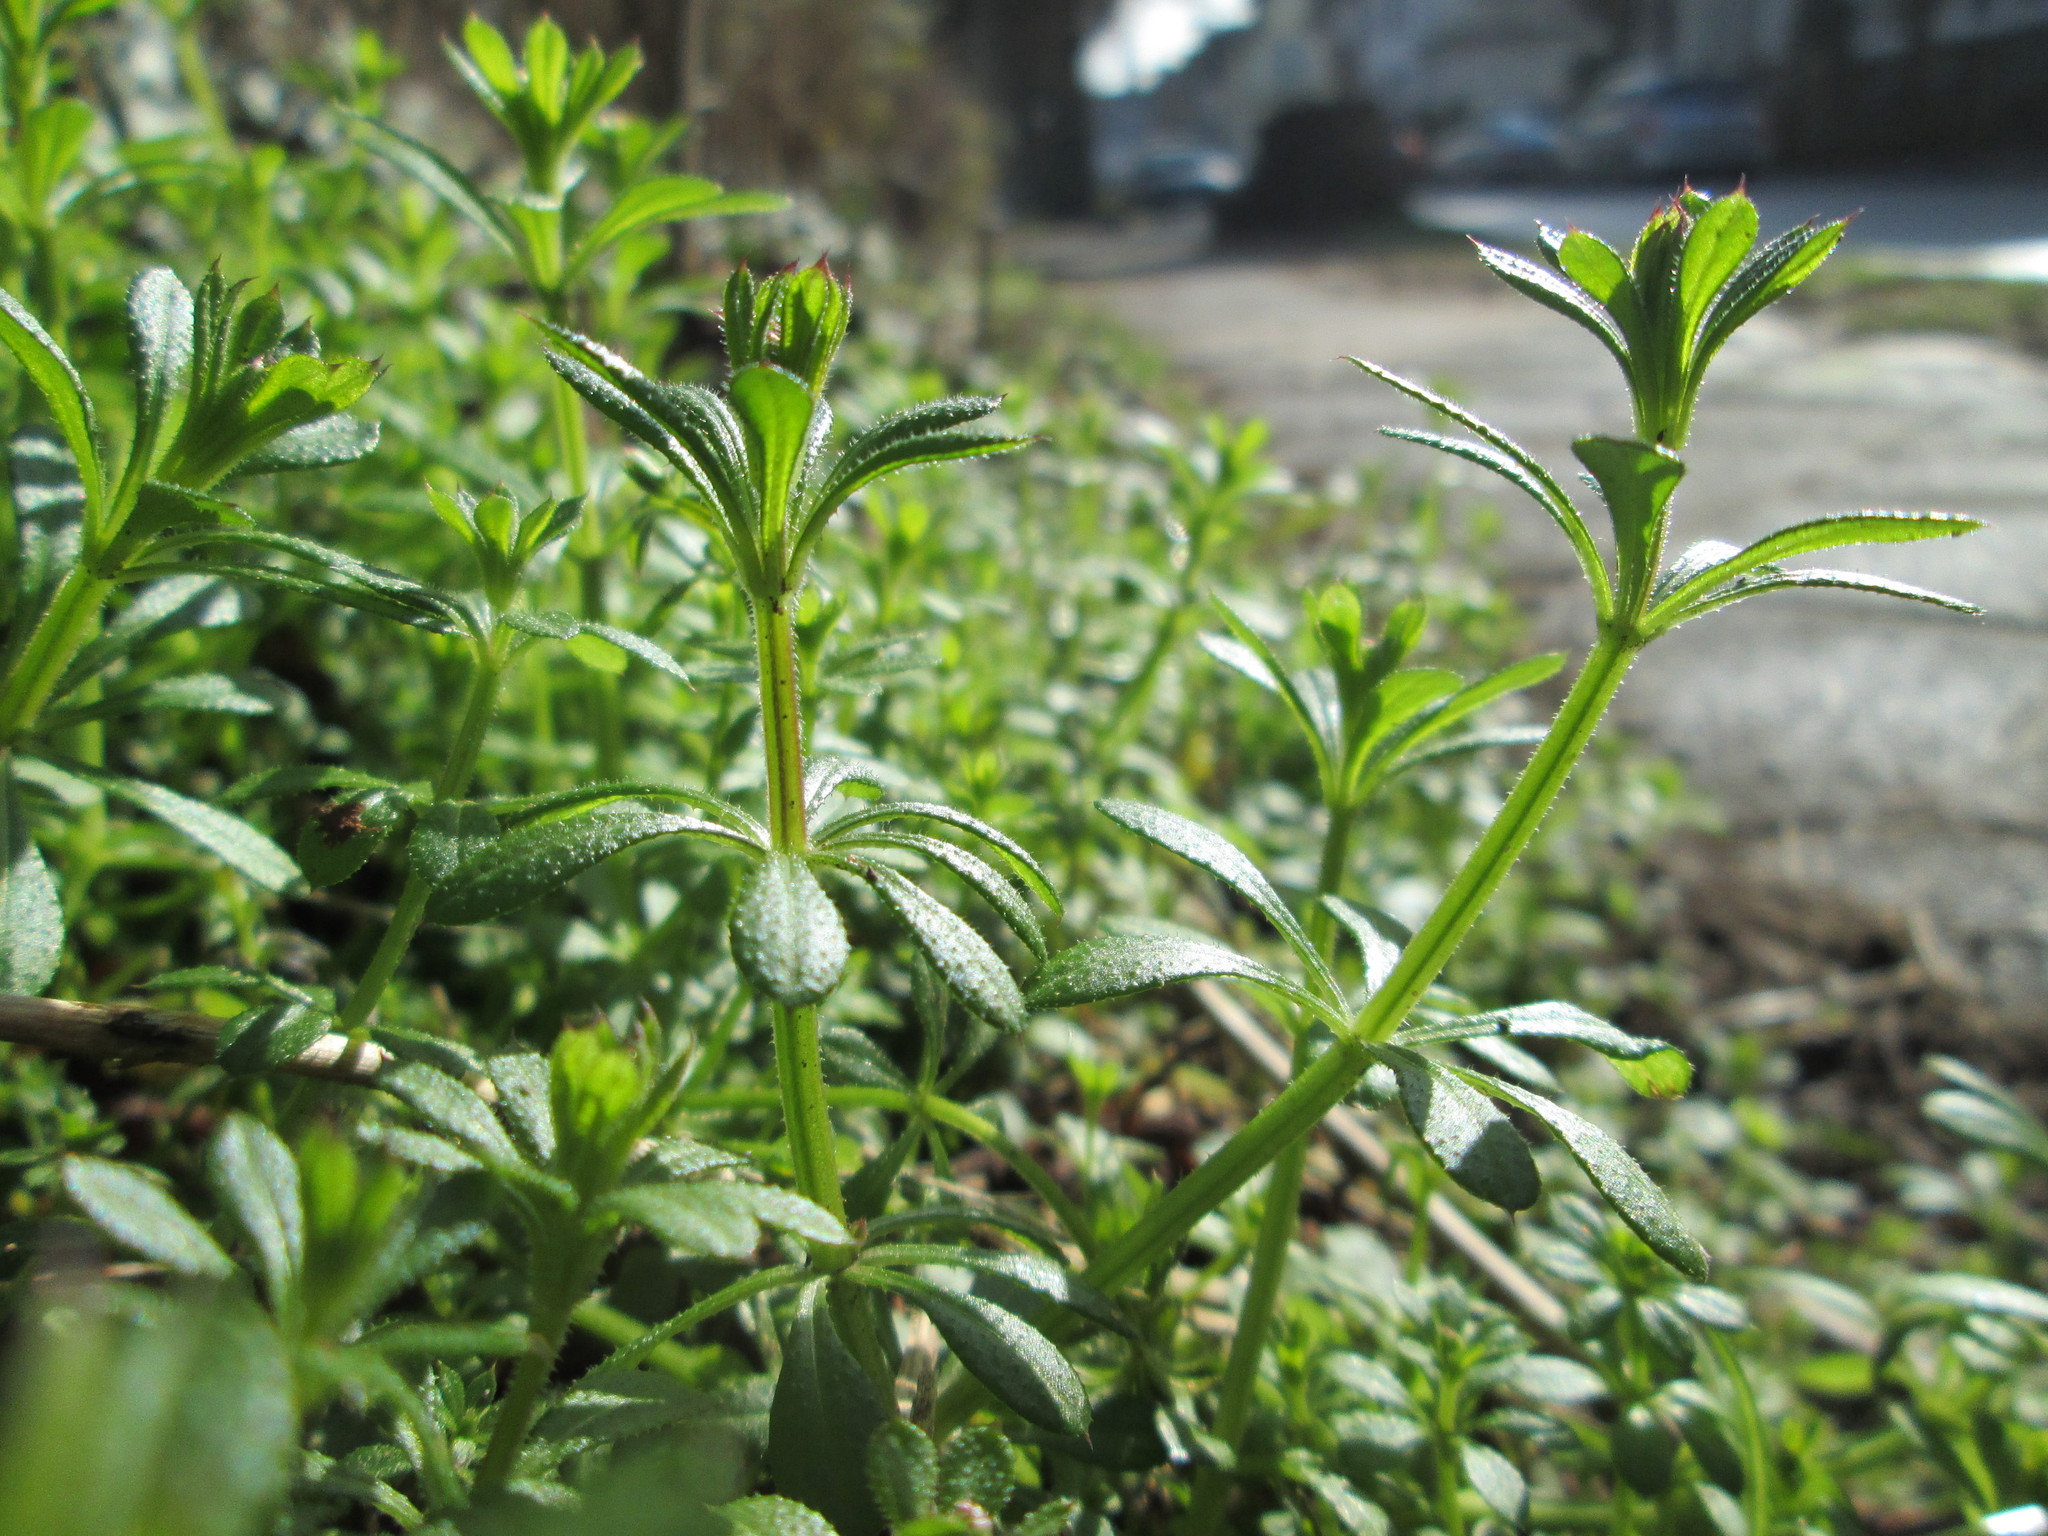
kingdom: Plantae
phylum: Tracheophyta
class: Magnoliopsida
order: Gentianales
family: Rubiaceae
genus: Galium
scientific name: Galium aparine
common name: Cleavers
